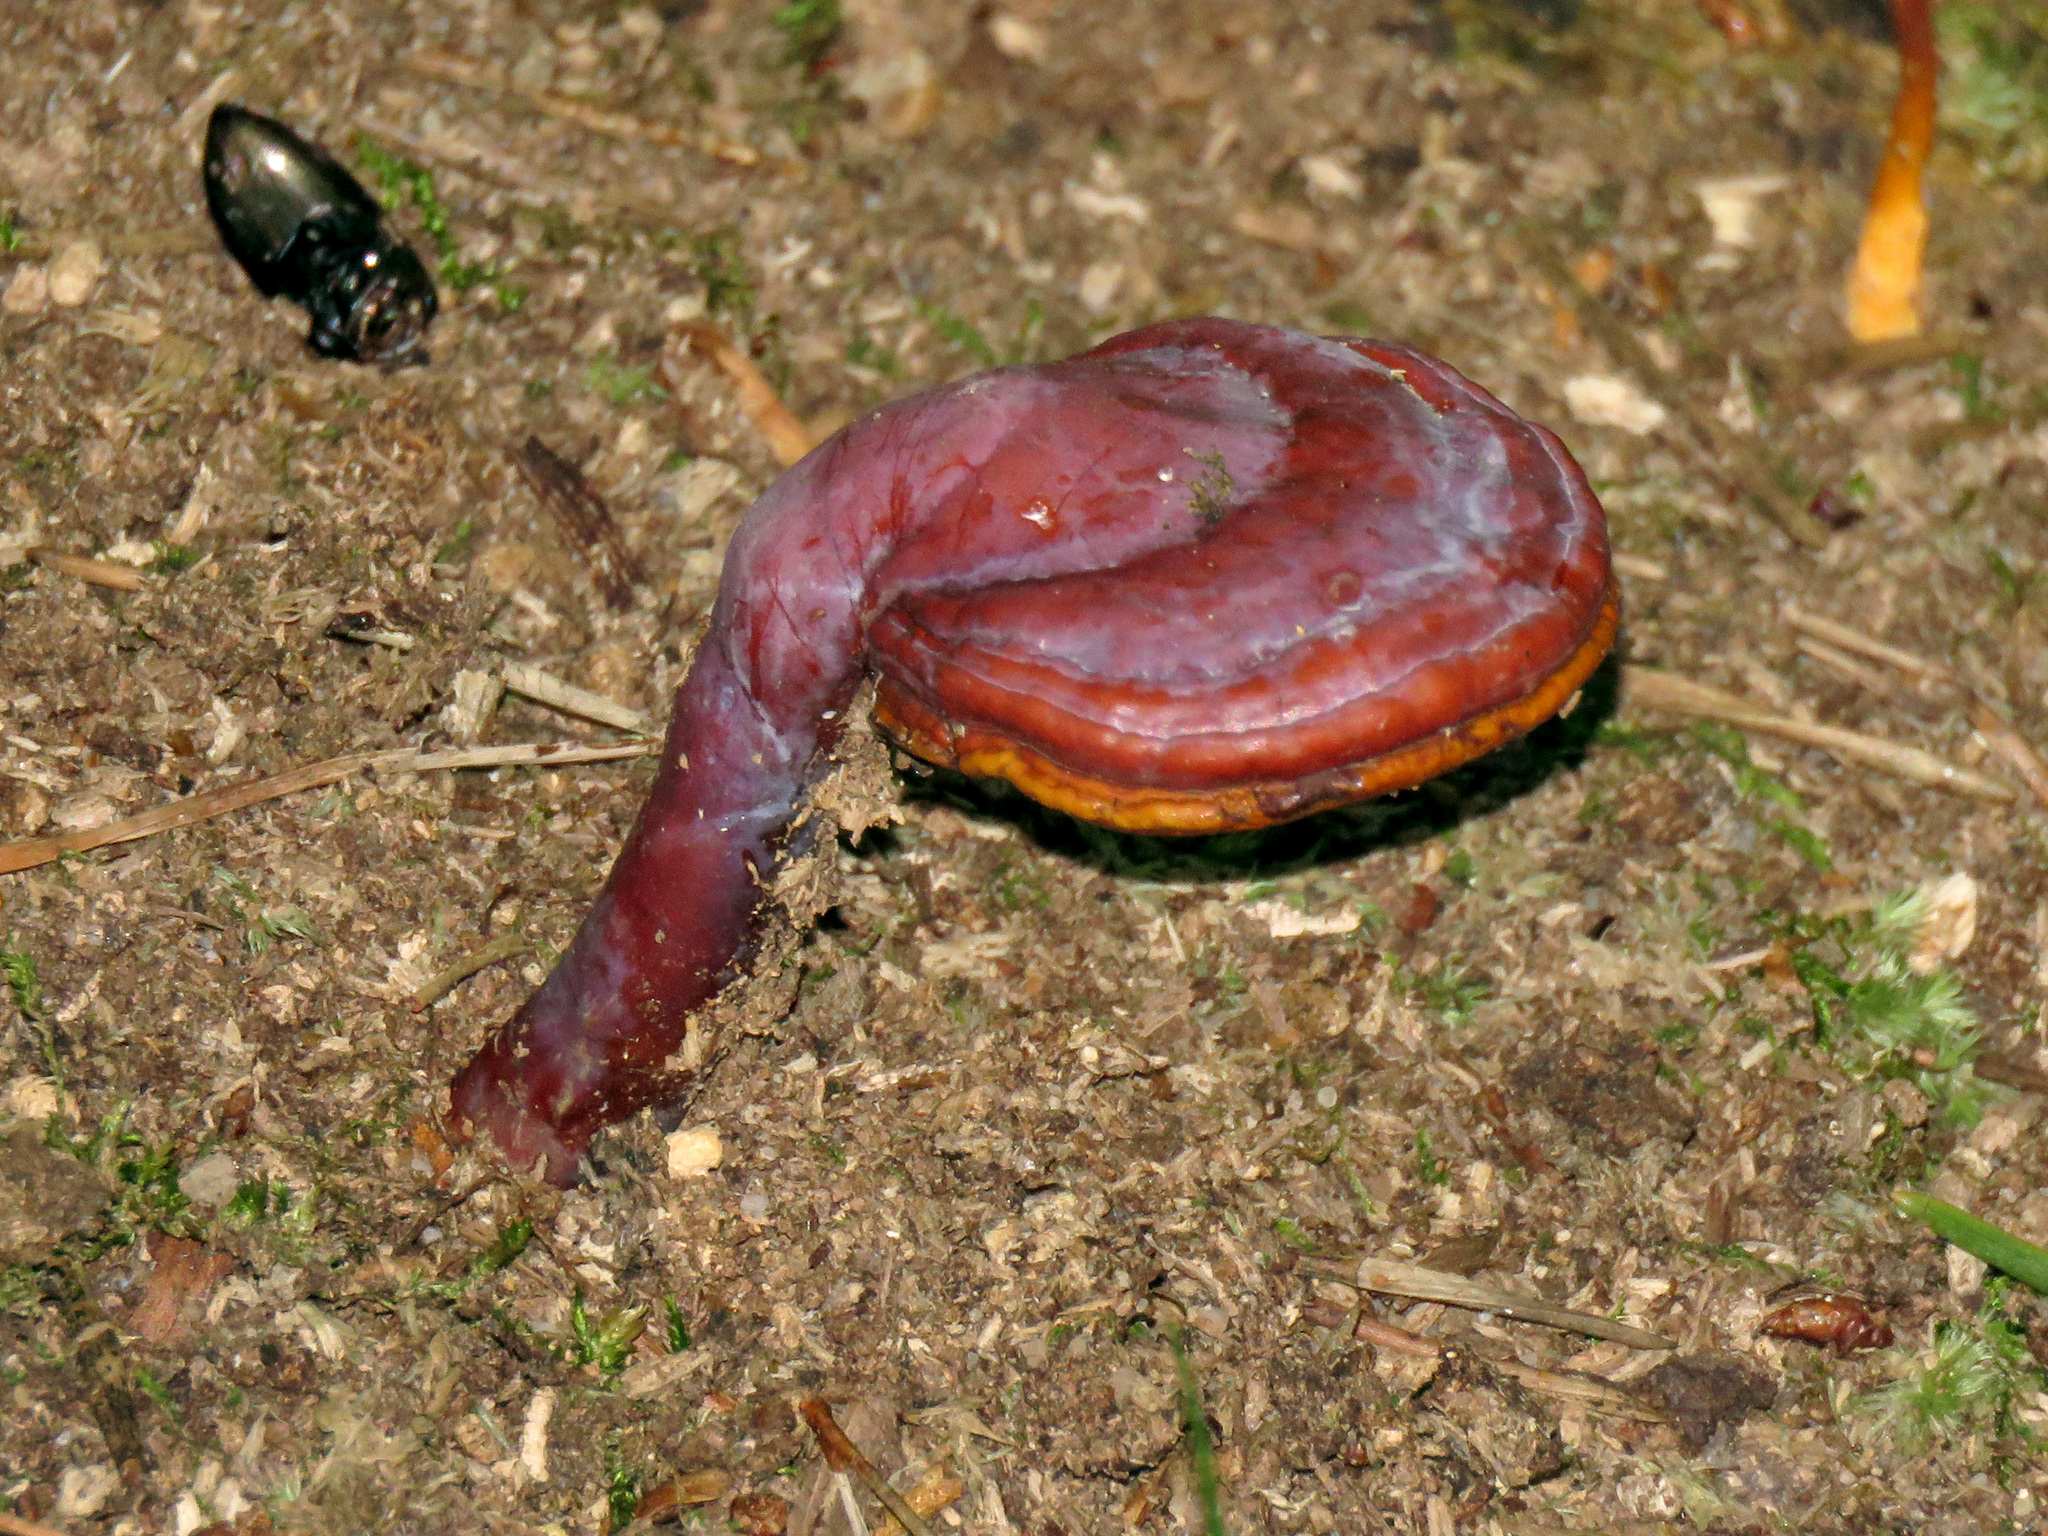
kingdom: Fungi
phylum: Basidiomycota
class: Agaricomycetes
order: Polyporales
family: Polyporaceae
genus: Ganoderma
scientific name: Ganoderma curtisii
